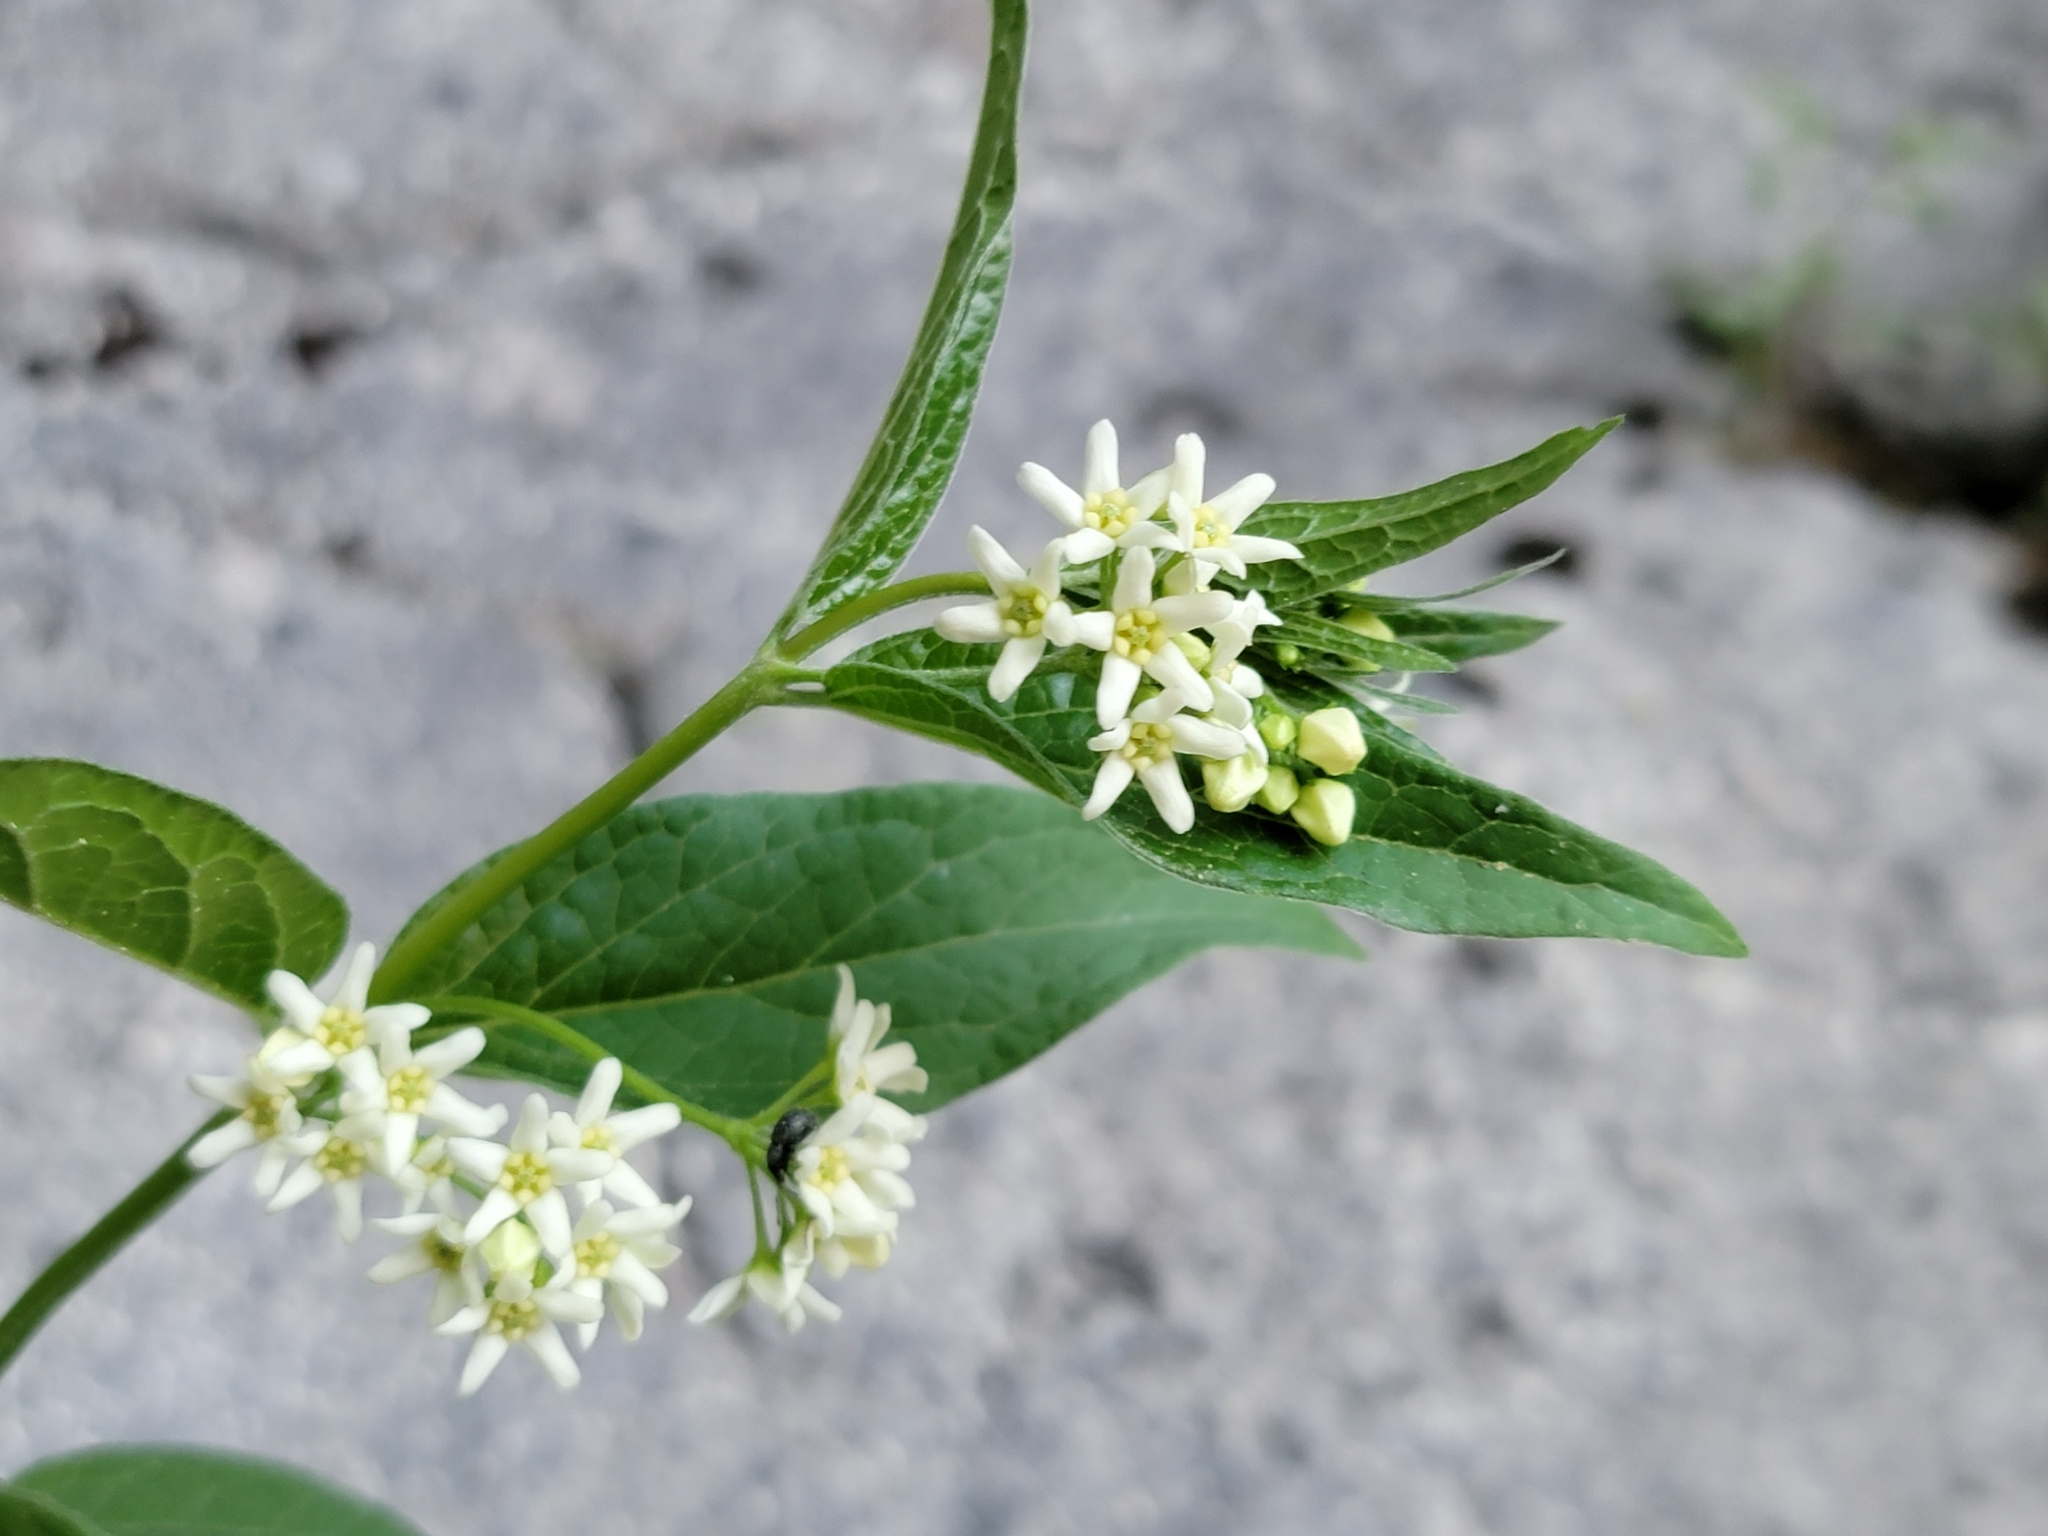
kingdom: Plantae
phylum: Tracheophyta
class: Magnoliopsida
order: Gentianales
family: Apocynaceae
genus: Vincetoxicum
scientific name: Vincetoxicum hirundinaria
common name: White swallowwort
